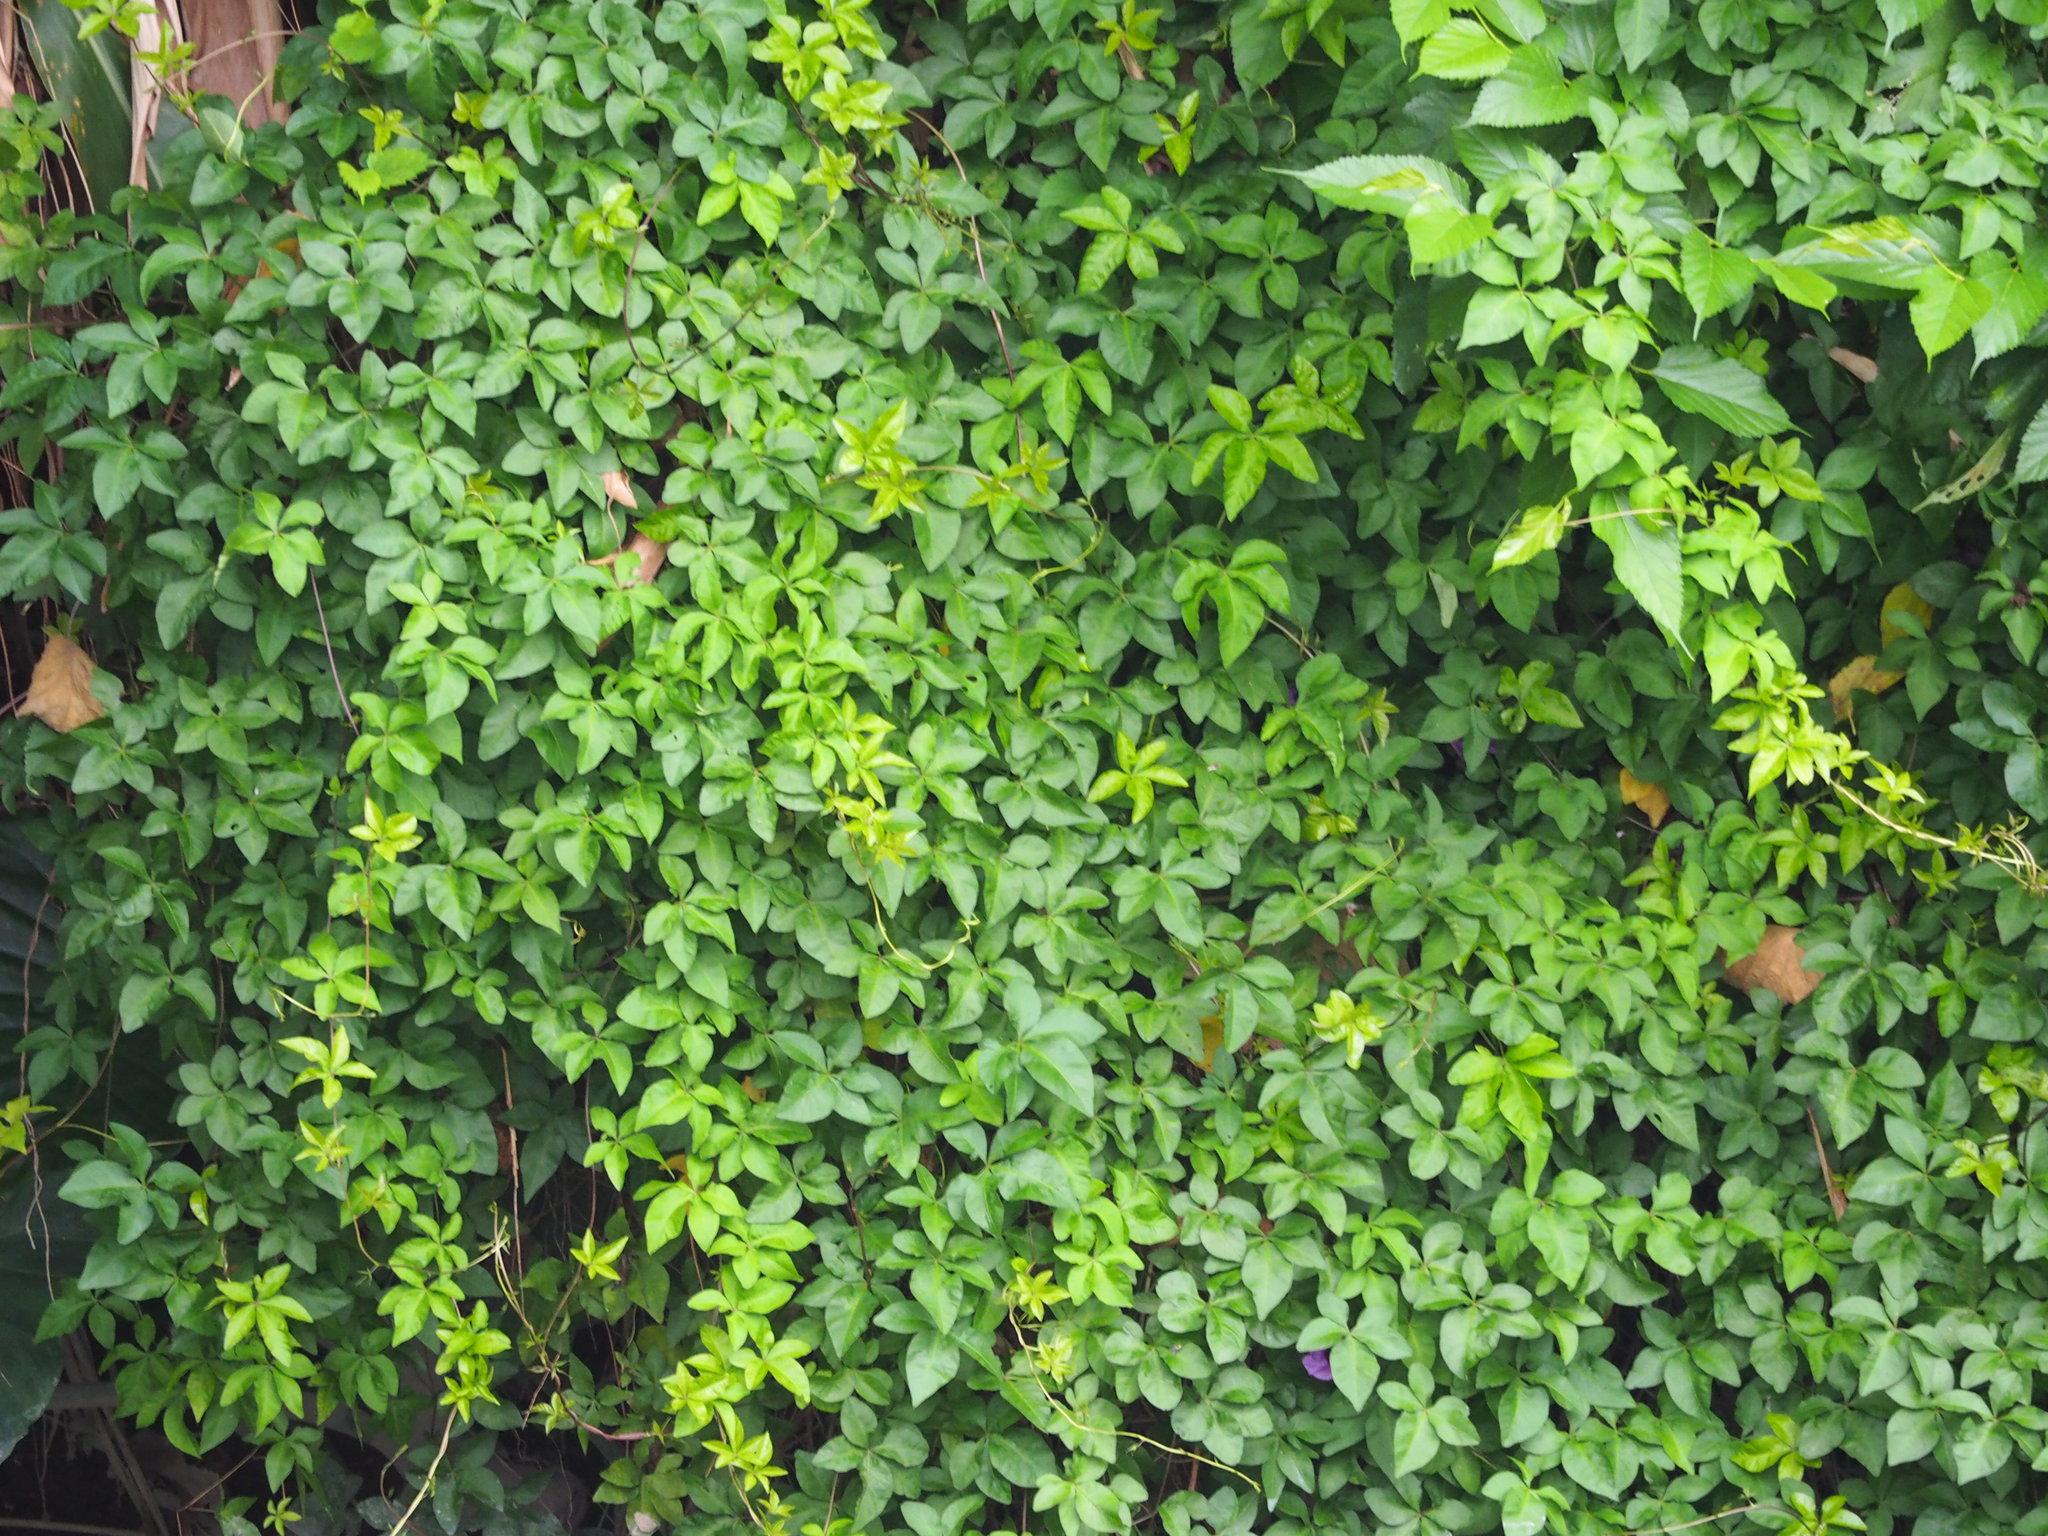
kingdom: Plantae
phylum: Tracheophyta
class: Magnoliopsida
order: Solanales
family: Convolvulaceae
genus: Ipomoea
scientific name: Ipomoea cairica
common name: Mile a minute vine
